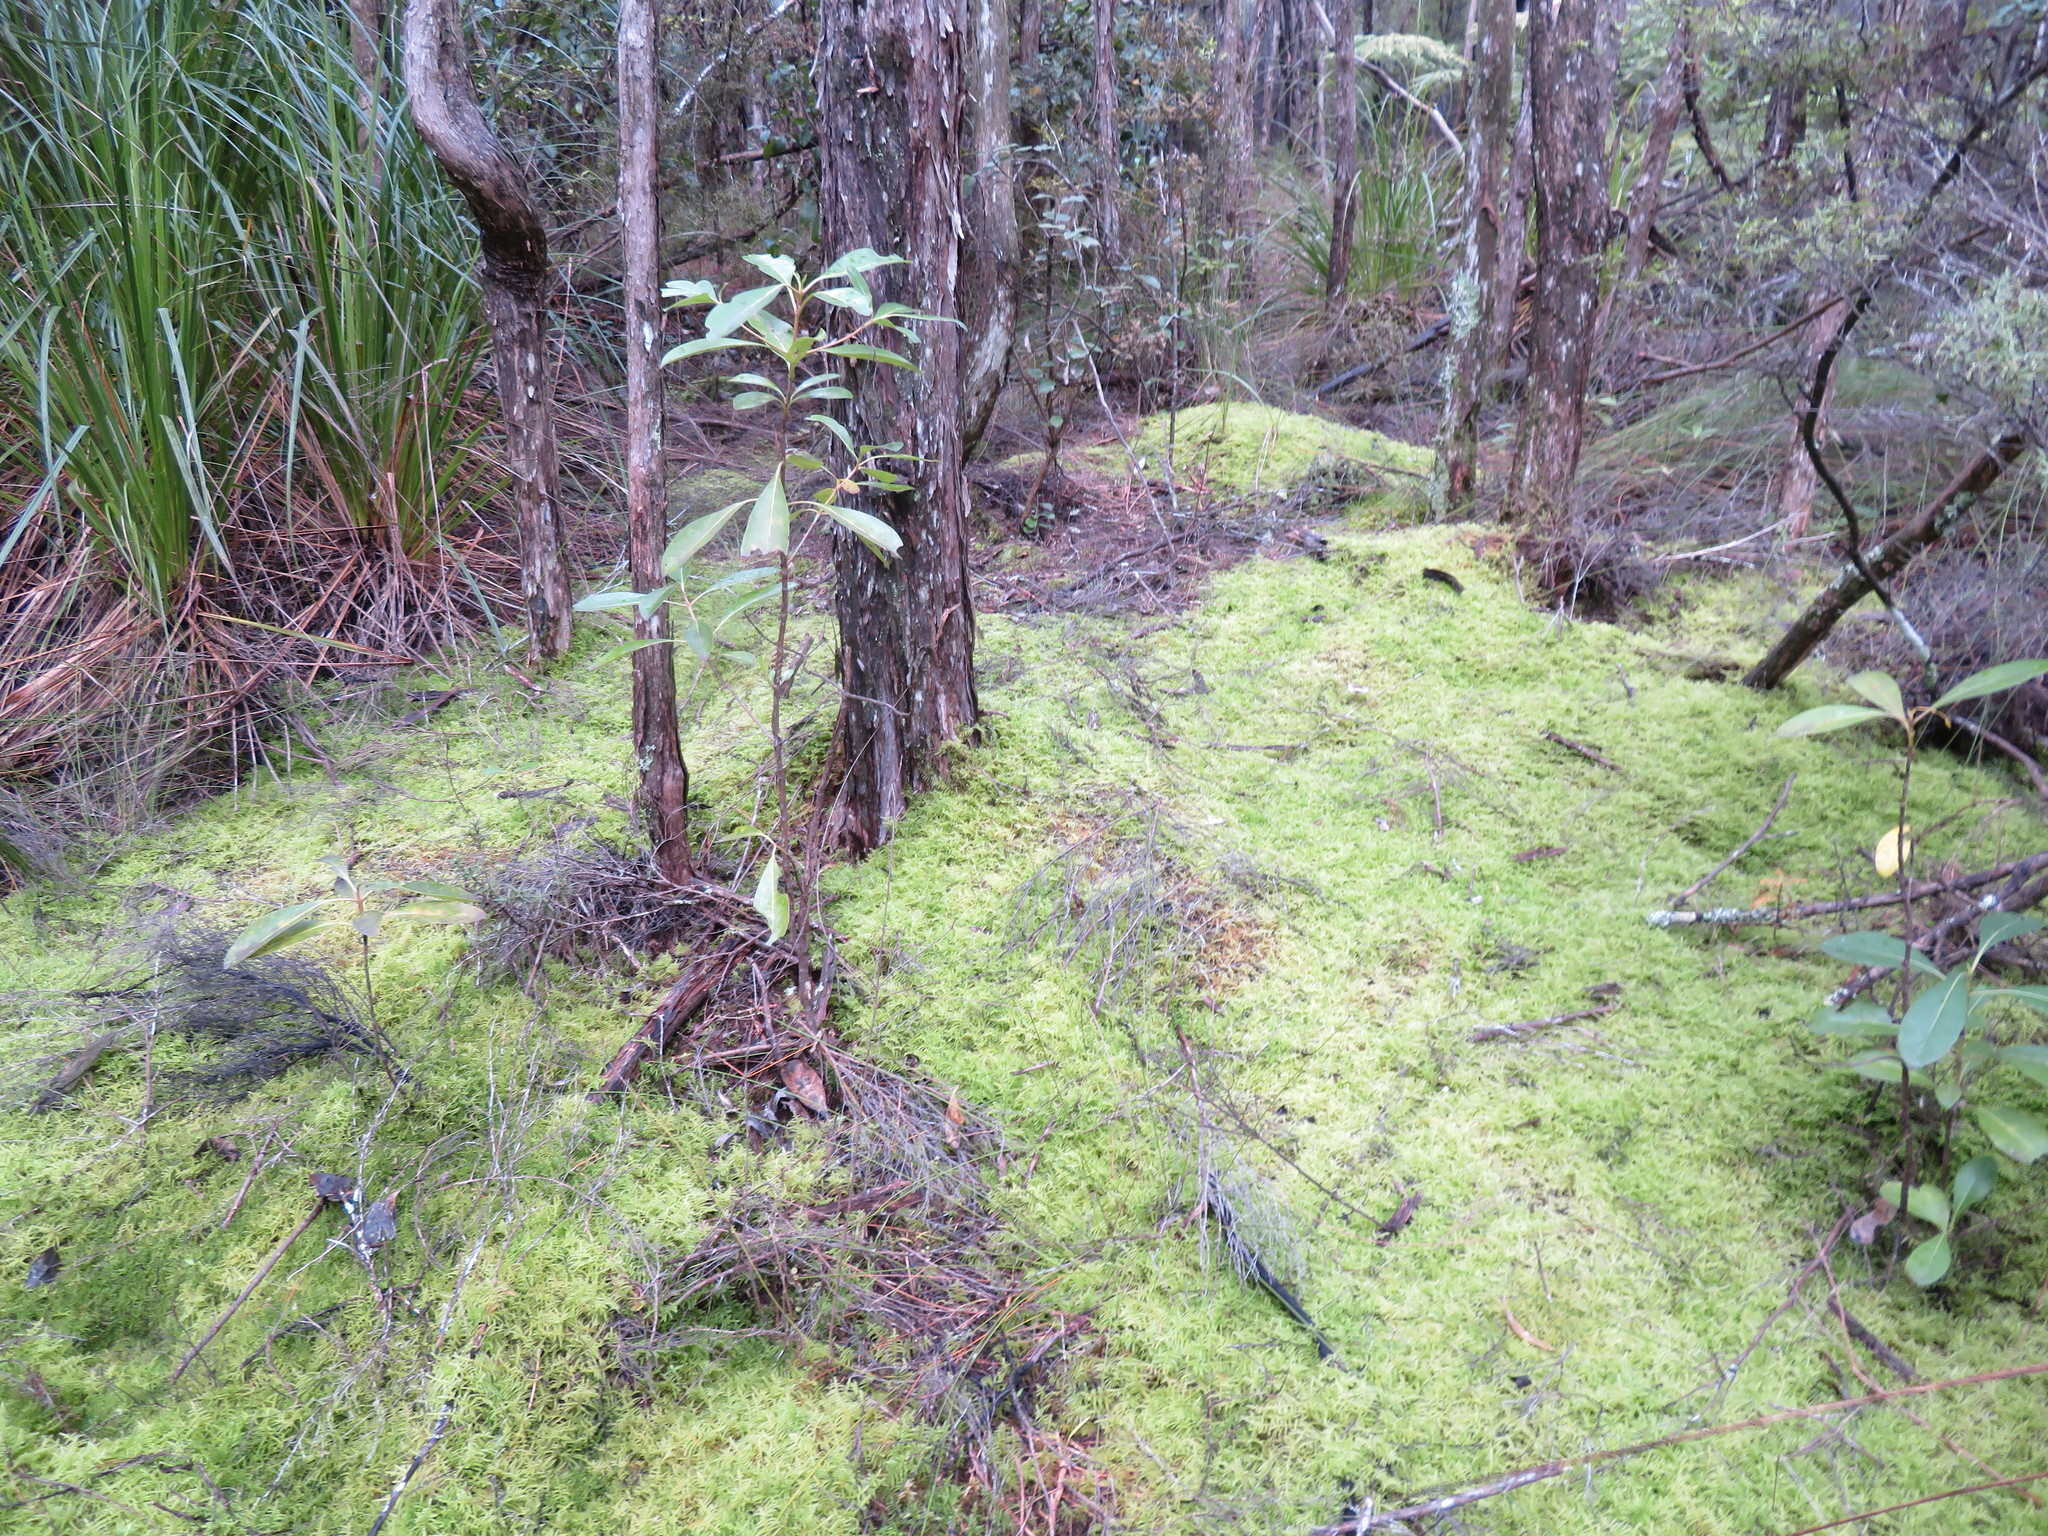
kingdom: Plantae
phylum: Bryophyta
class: Bryopsida
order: Hypnales
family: Brachytheciaceae
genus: Pseudoscleropodium
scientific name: Pseudoscleropodium purum
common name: Neat feather-moss
